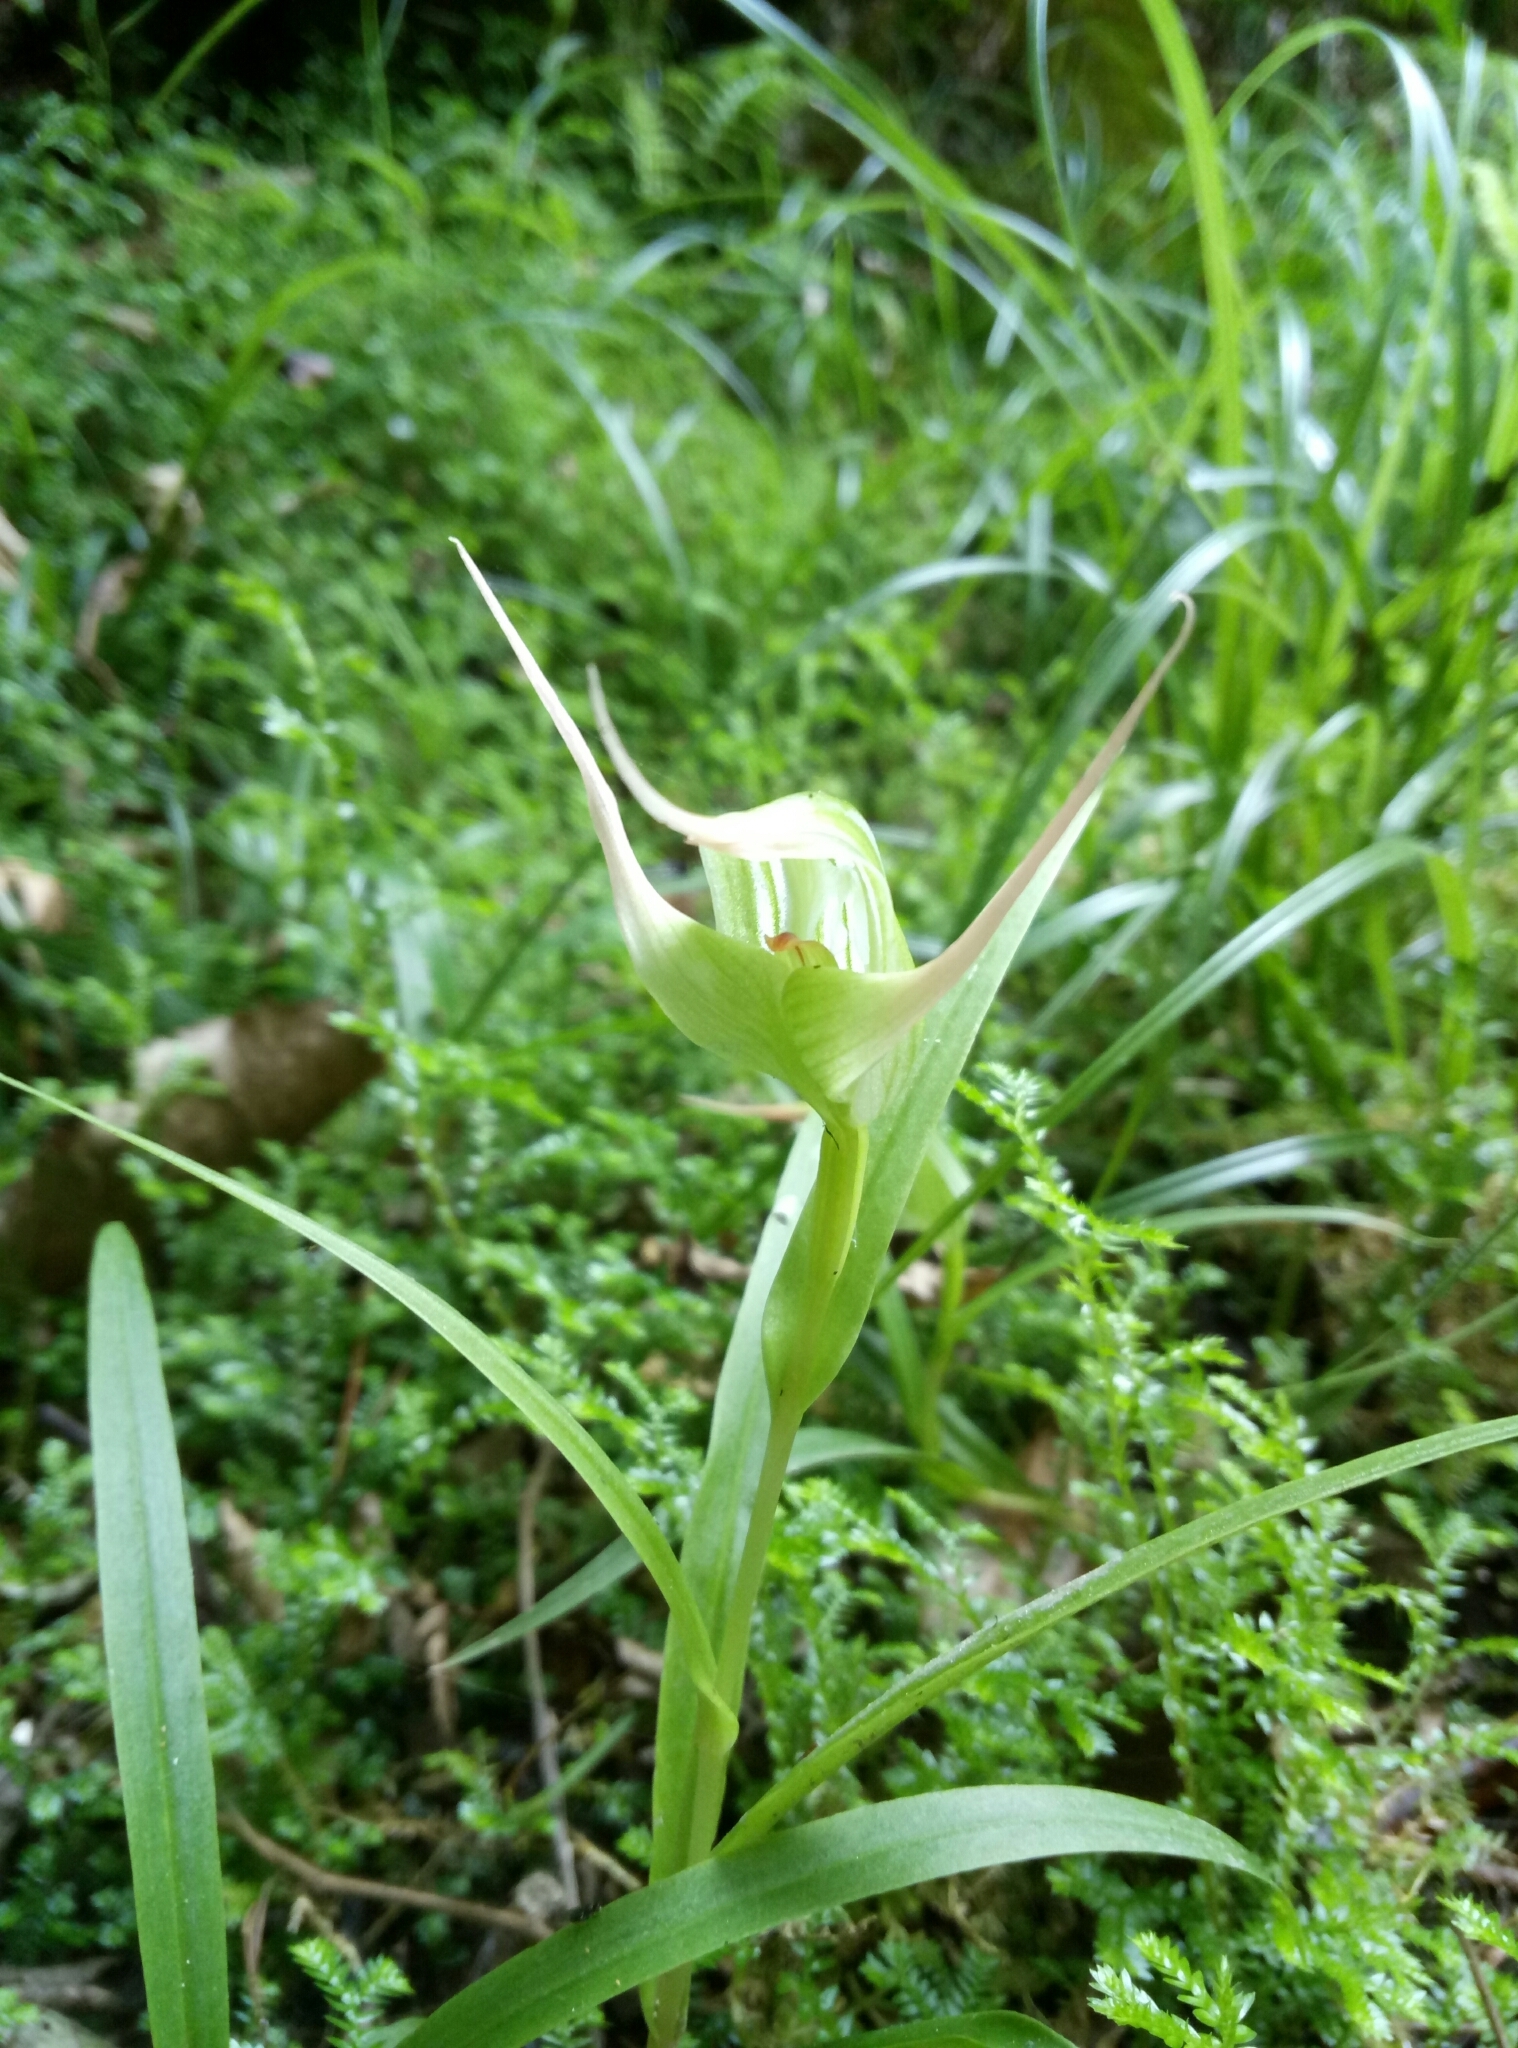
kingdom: Plantae
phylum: Tracheophyta
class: Liliopsida
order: Asparagales
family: Orchidaceae
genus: Pterostylis
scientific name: Pterostylis banksii
